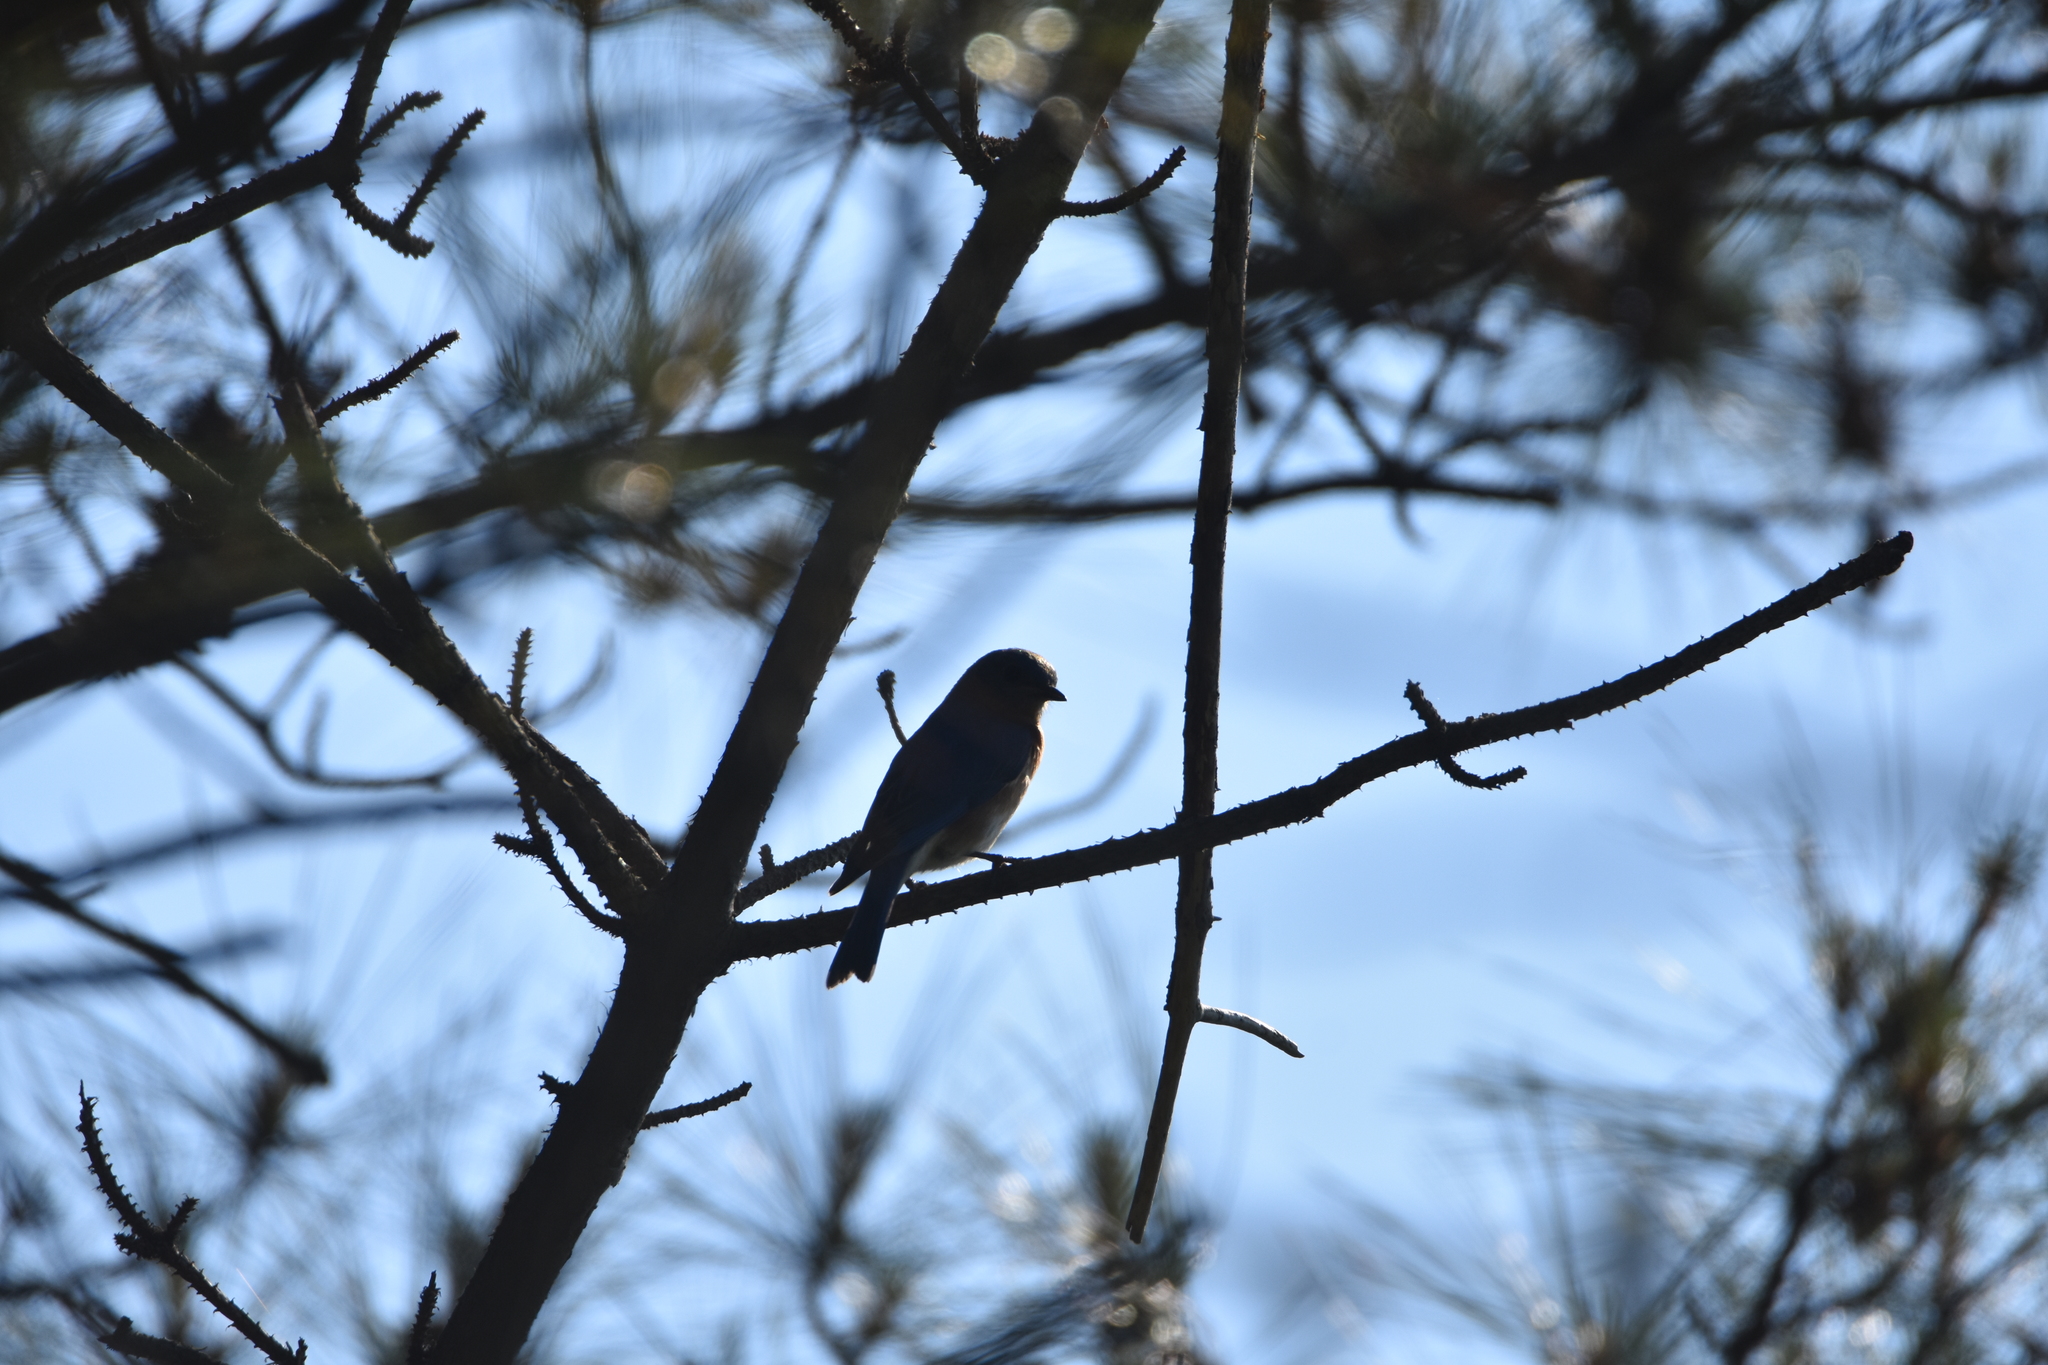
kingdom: Animalia
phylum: Chordata
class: Aves
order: Passeriformes
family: Turdidae
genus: Sialia
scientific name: Sialia sialis
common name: Eastern bluebird
